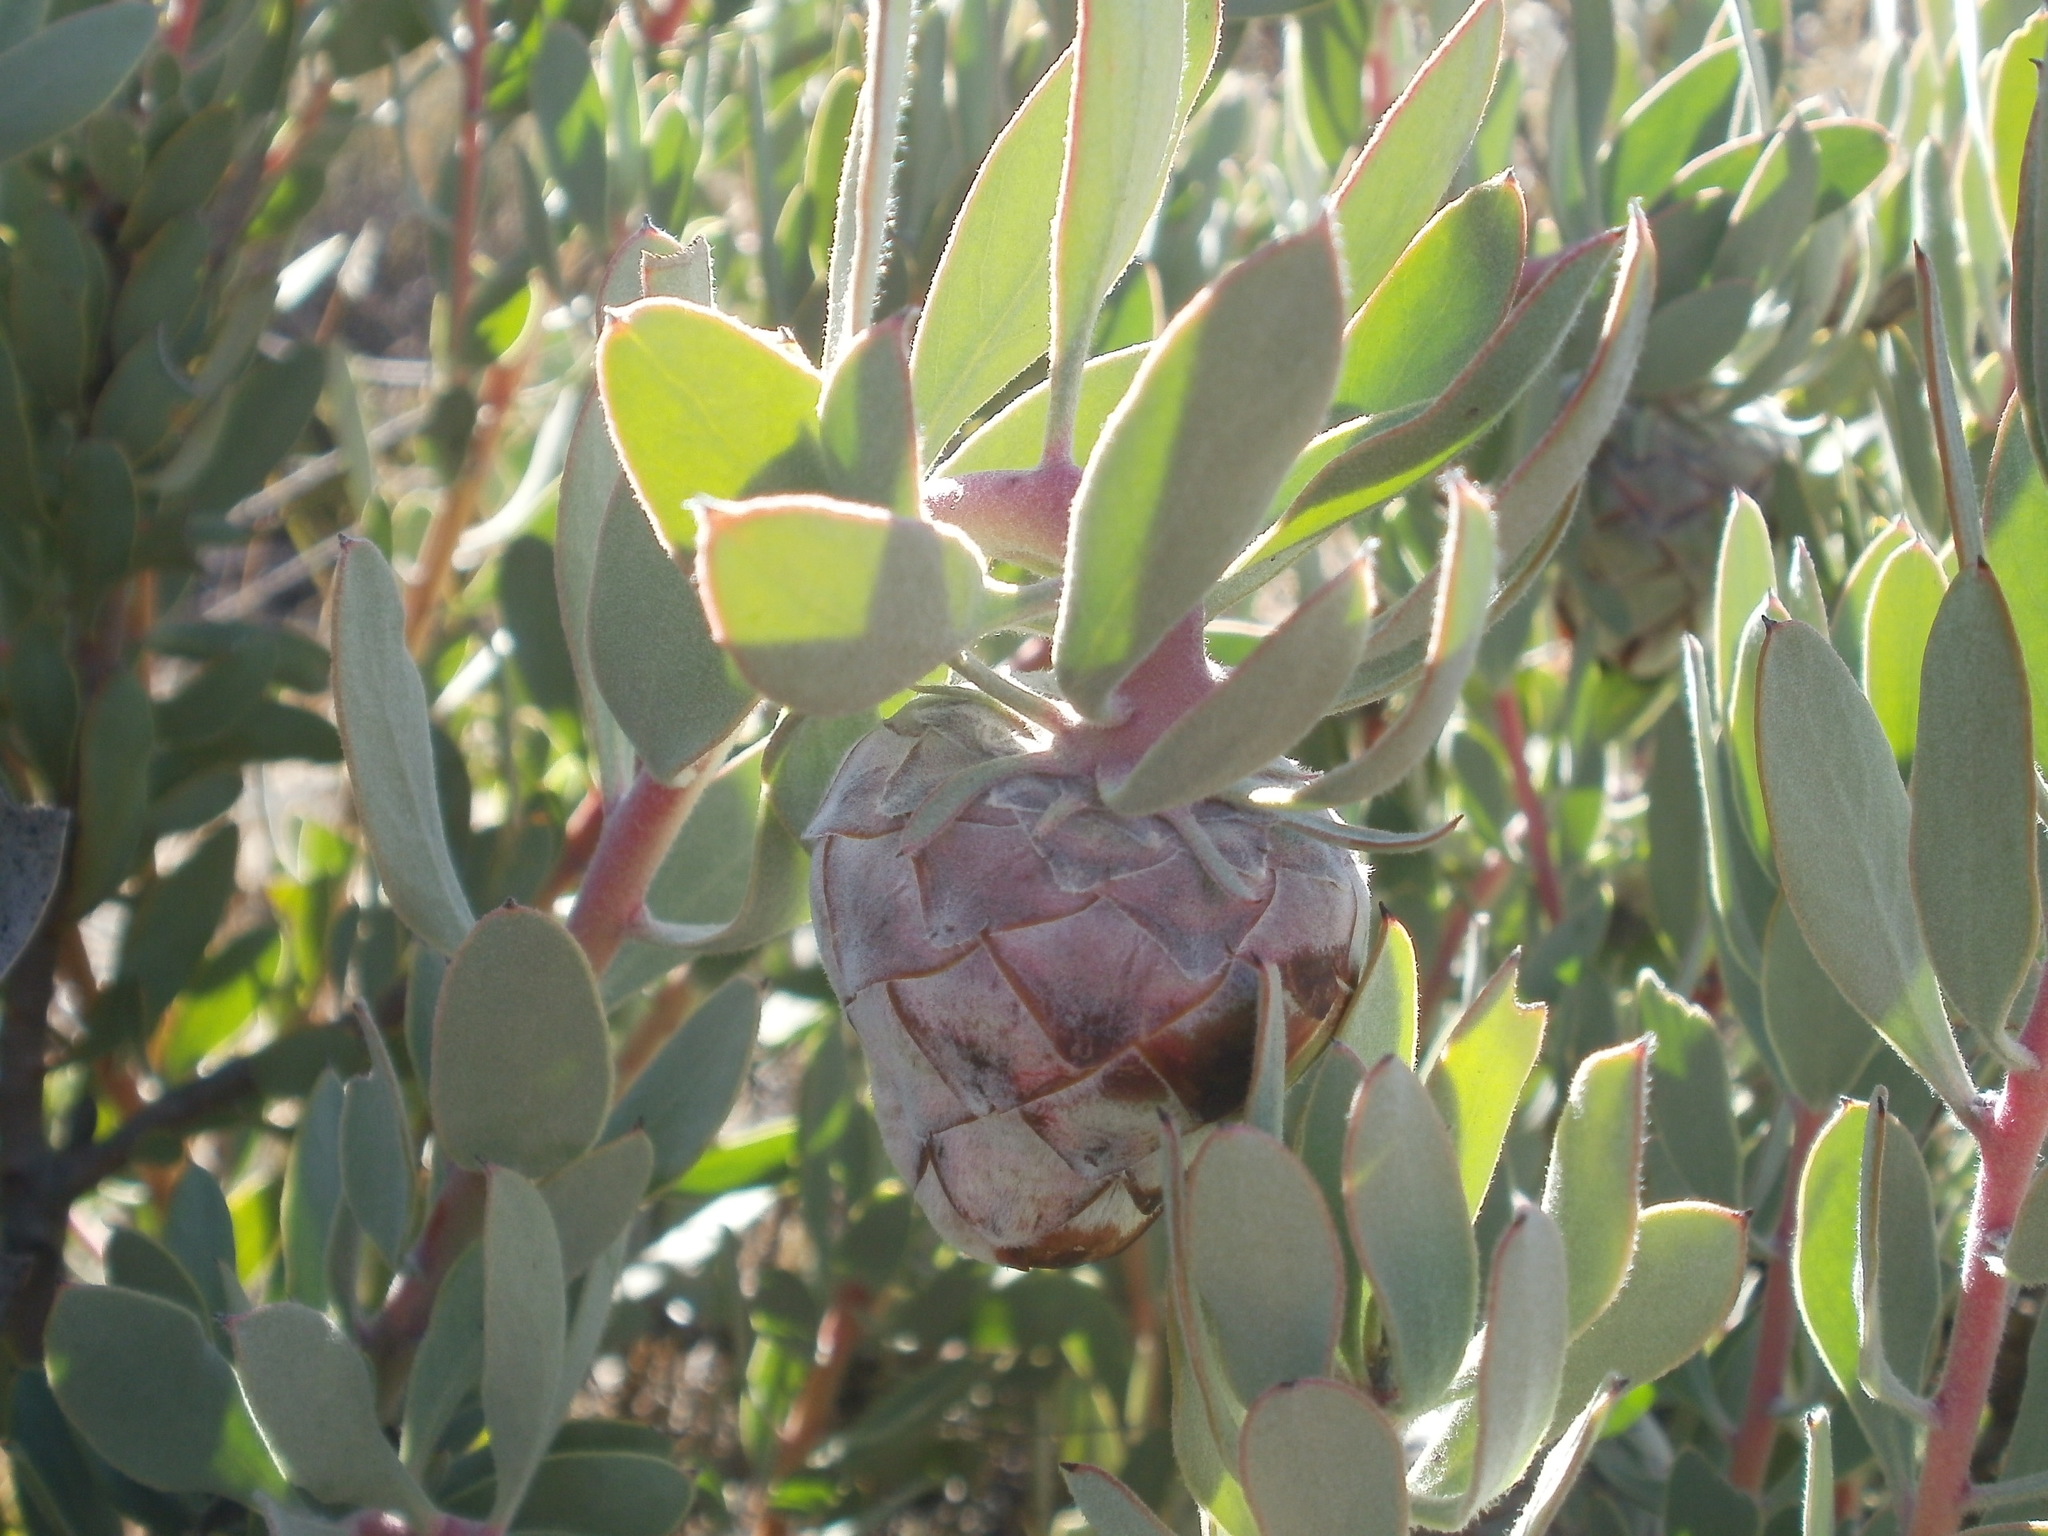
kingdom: Plantae
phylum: Tracheophyta
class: Magnoliopsida
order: Proteales
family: Proteaceae
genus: Protea
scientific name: Protea pendula
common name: Nodding sugarbush
